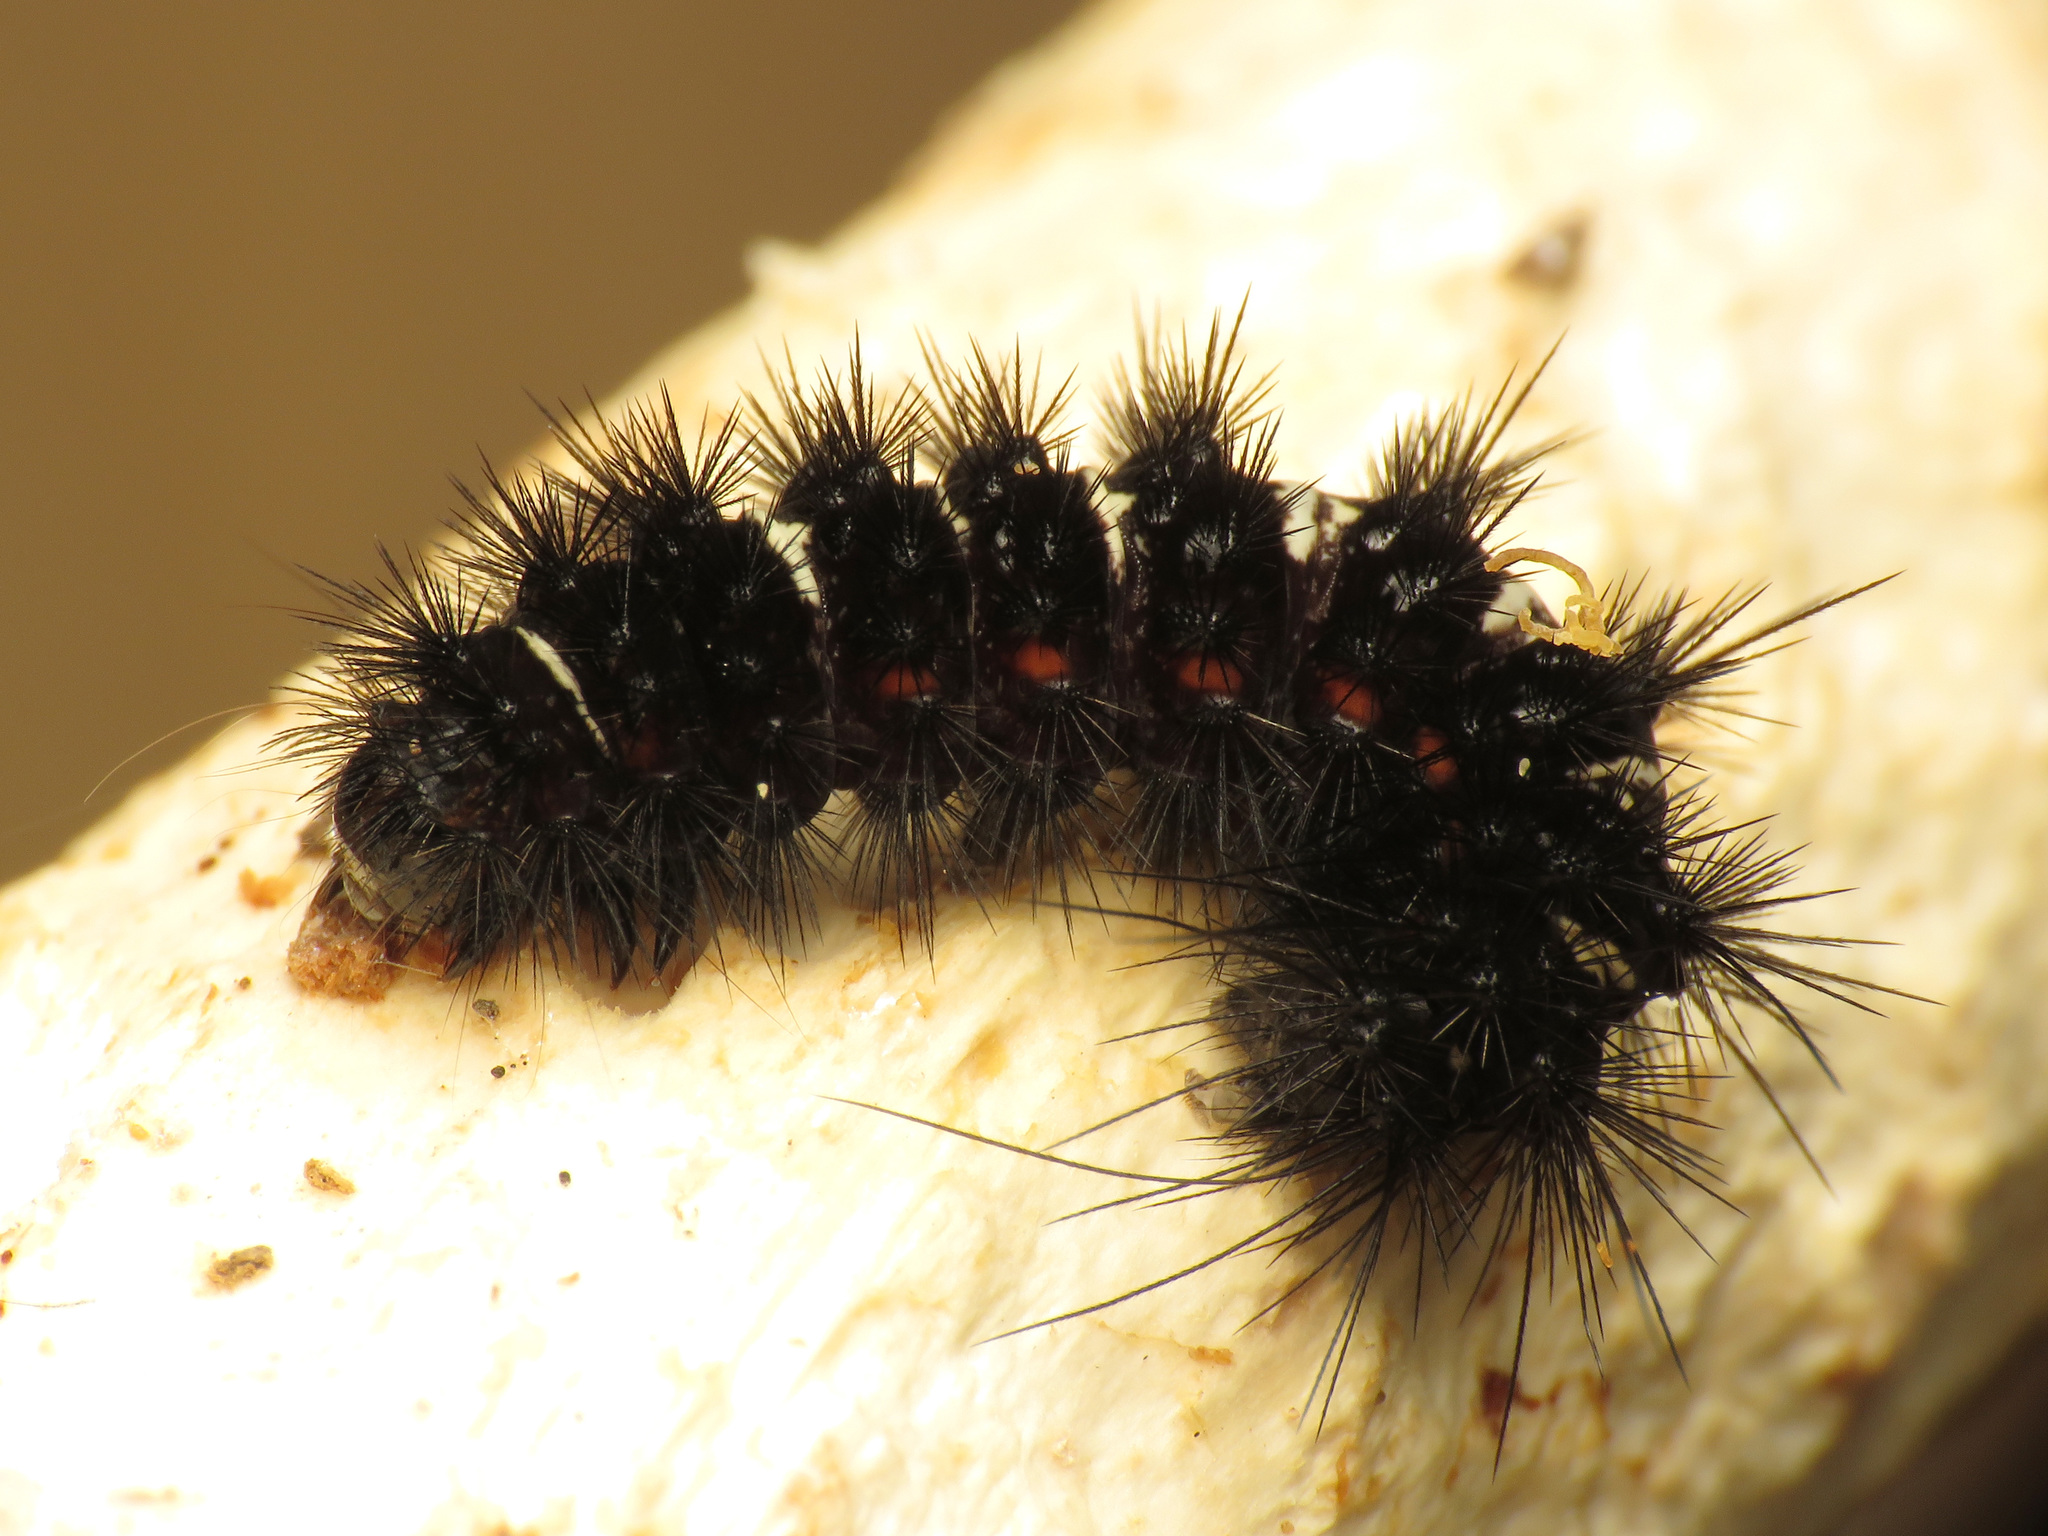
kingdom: Animalia
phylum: Arthropoda
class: Insecta
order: Lepidoptera
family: Erebidae
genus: Spilosoma
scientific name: Spilosoma congrua
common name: Agreeable tiger moth
